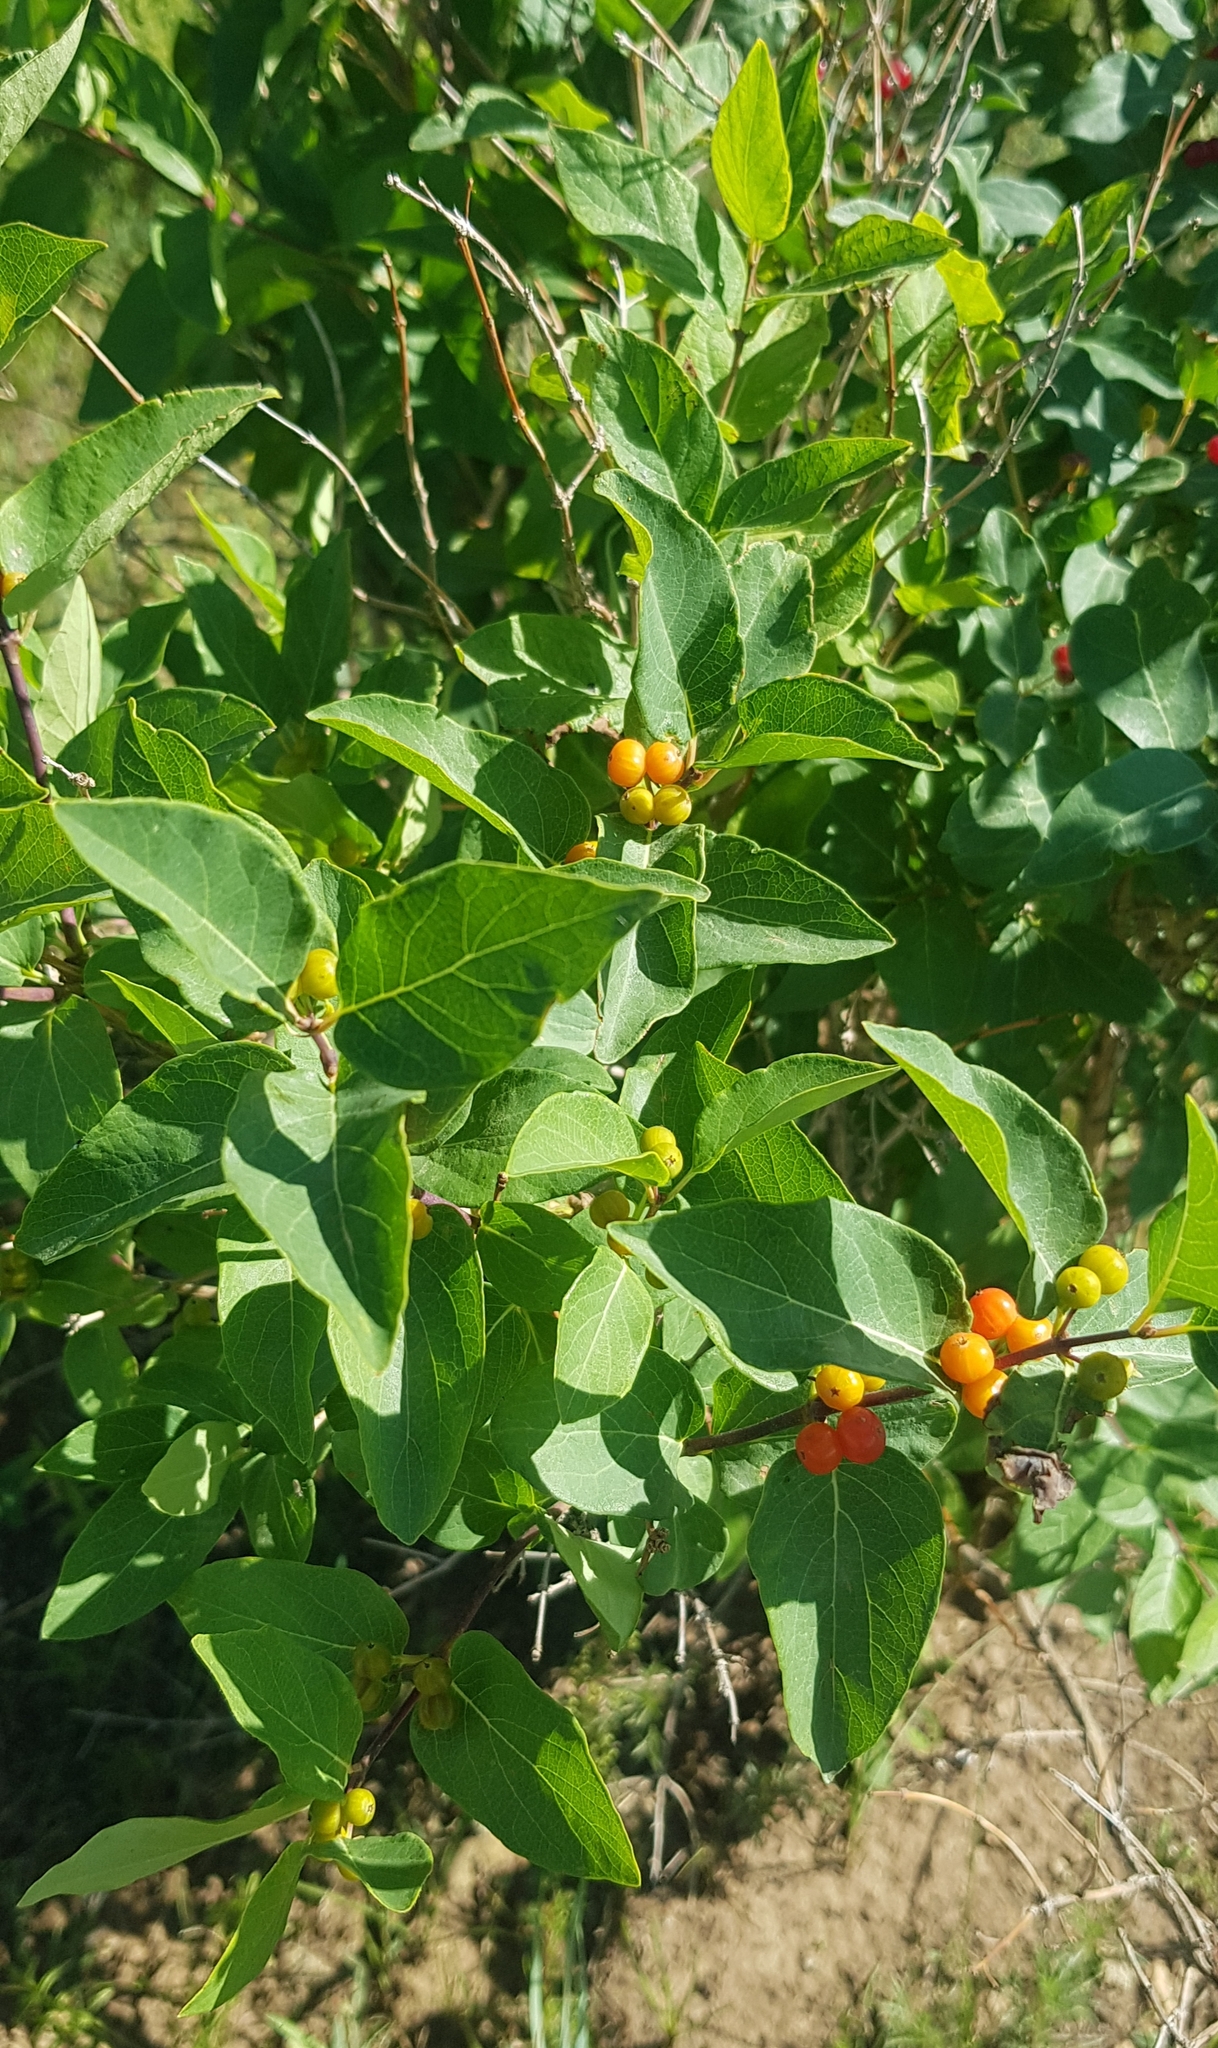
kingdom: Plantae
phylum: Tracheophyta
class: Magnoliopsida
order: Dipsacales
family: Caprifoliaceae
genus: Lonicera
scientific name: Lonicera tatarica
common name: Tatarian honeysuckle
